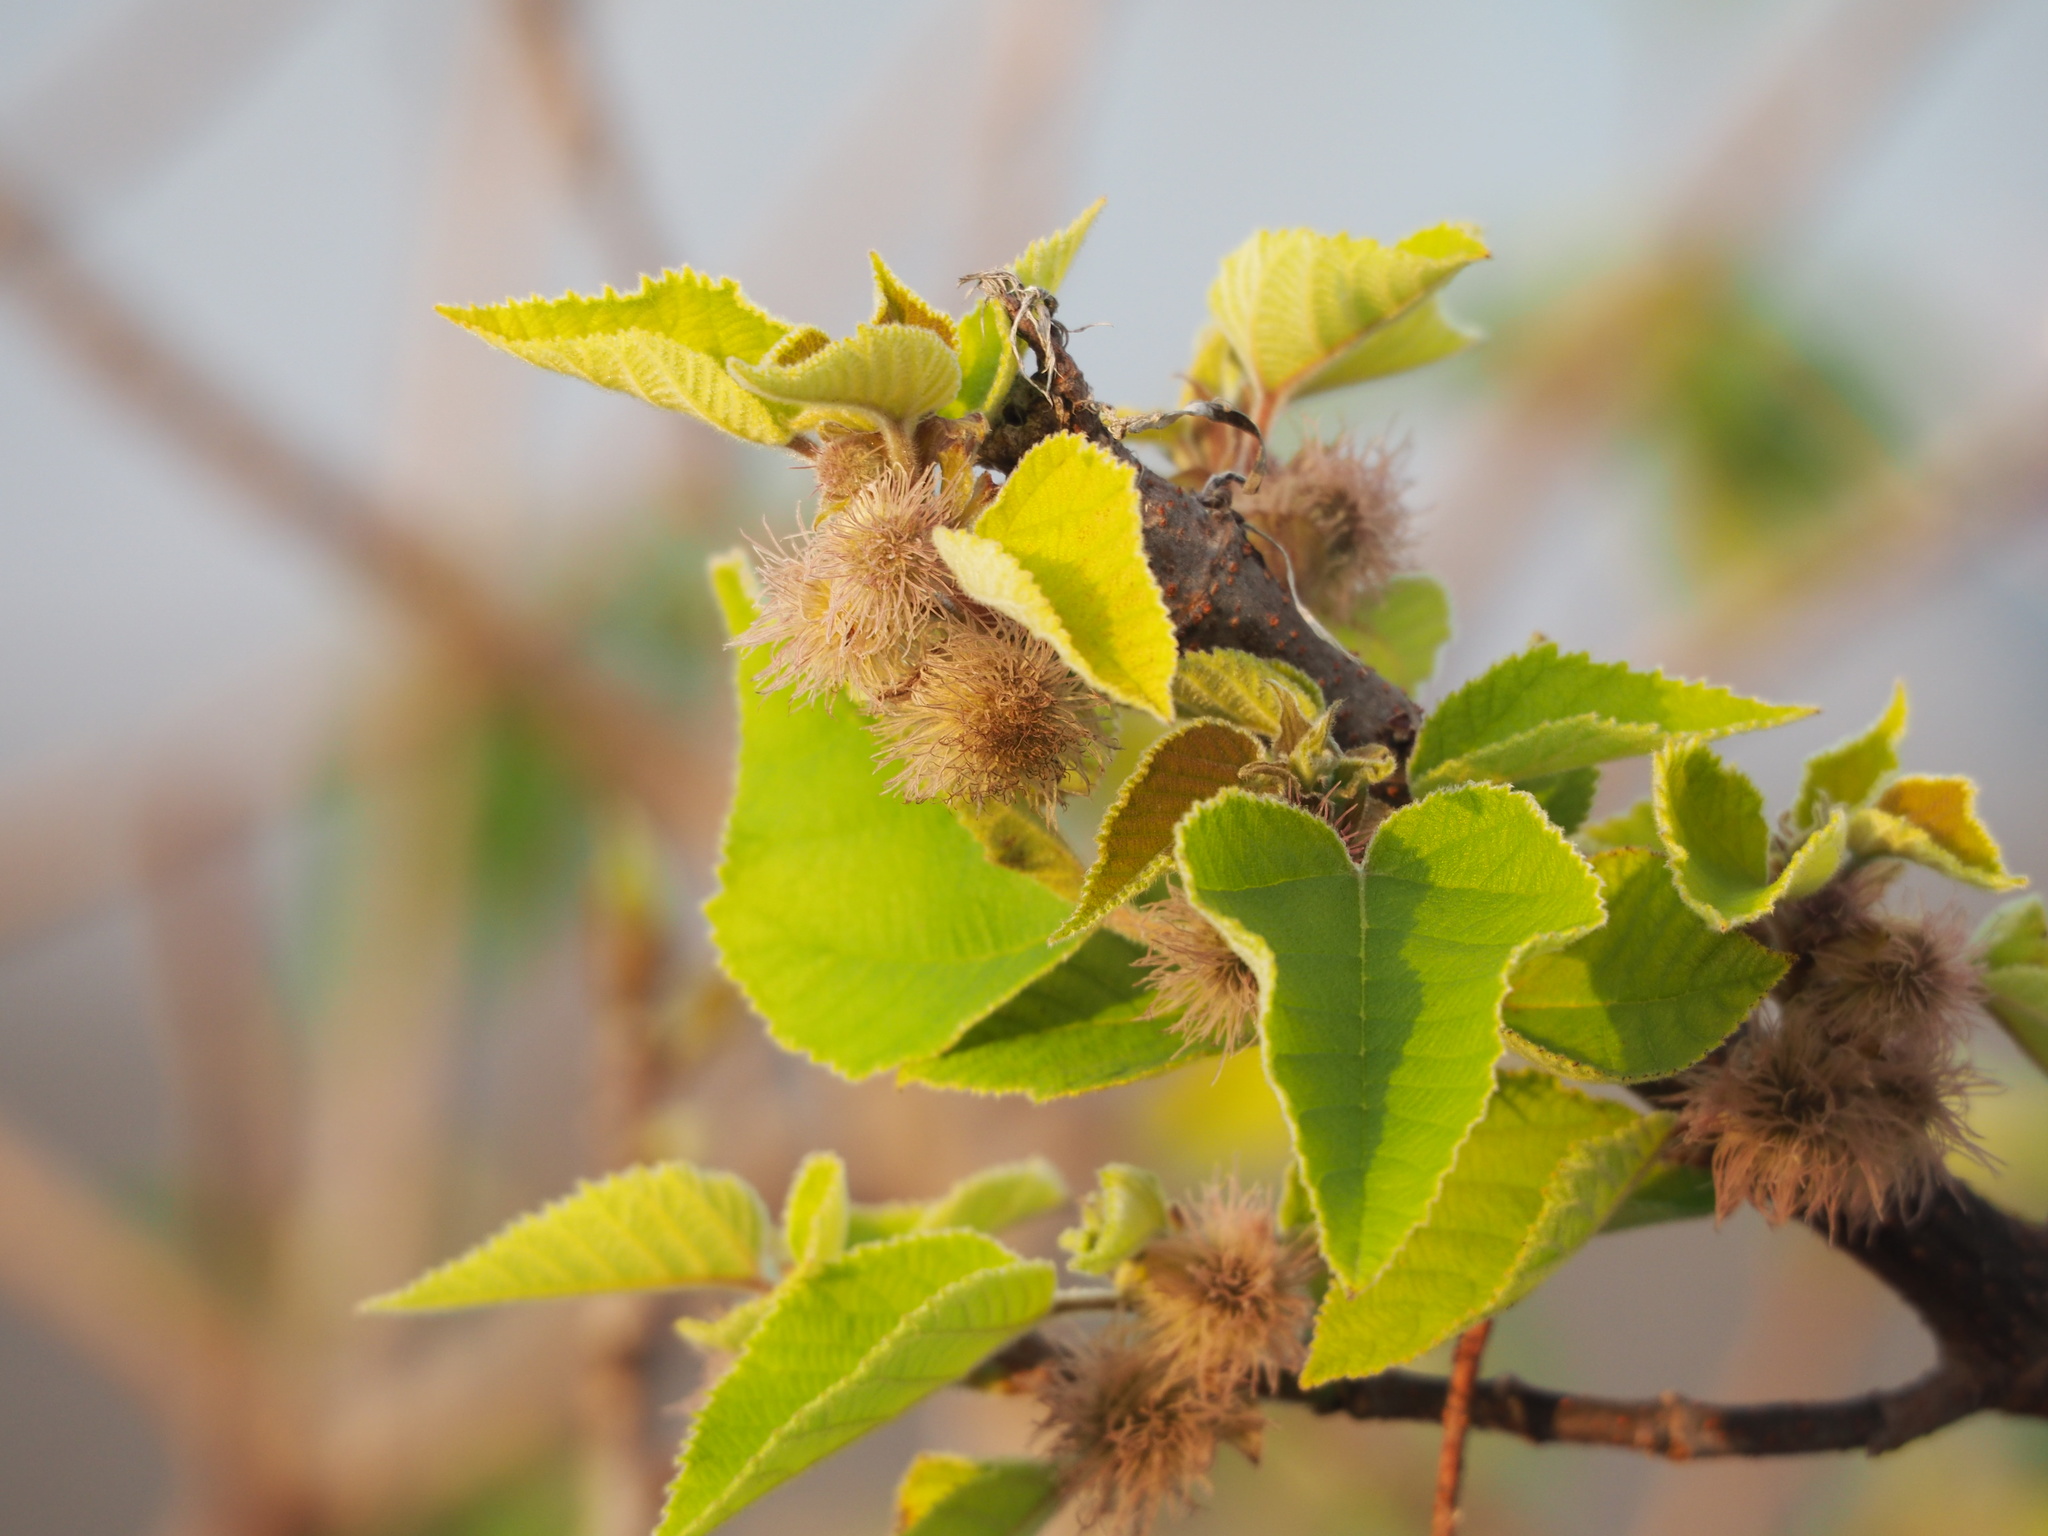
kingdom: Plantae
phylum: Tracheophyta
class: Magnoliopsida
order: Rosales
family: Moraceae
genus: Broussonetia
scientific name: Broussonetia papyrifera
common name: Paper mulberry
